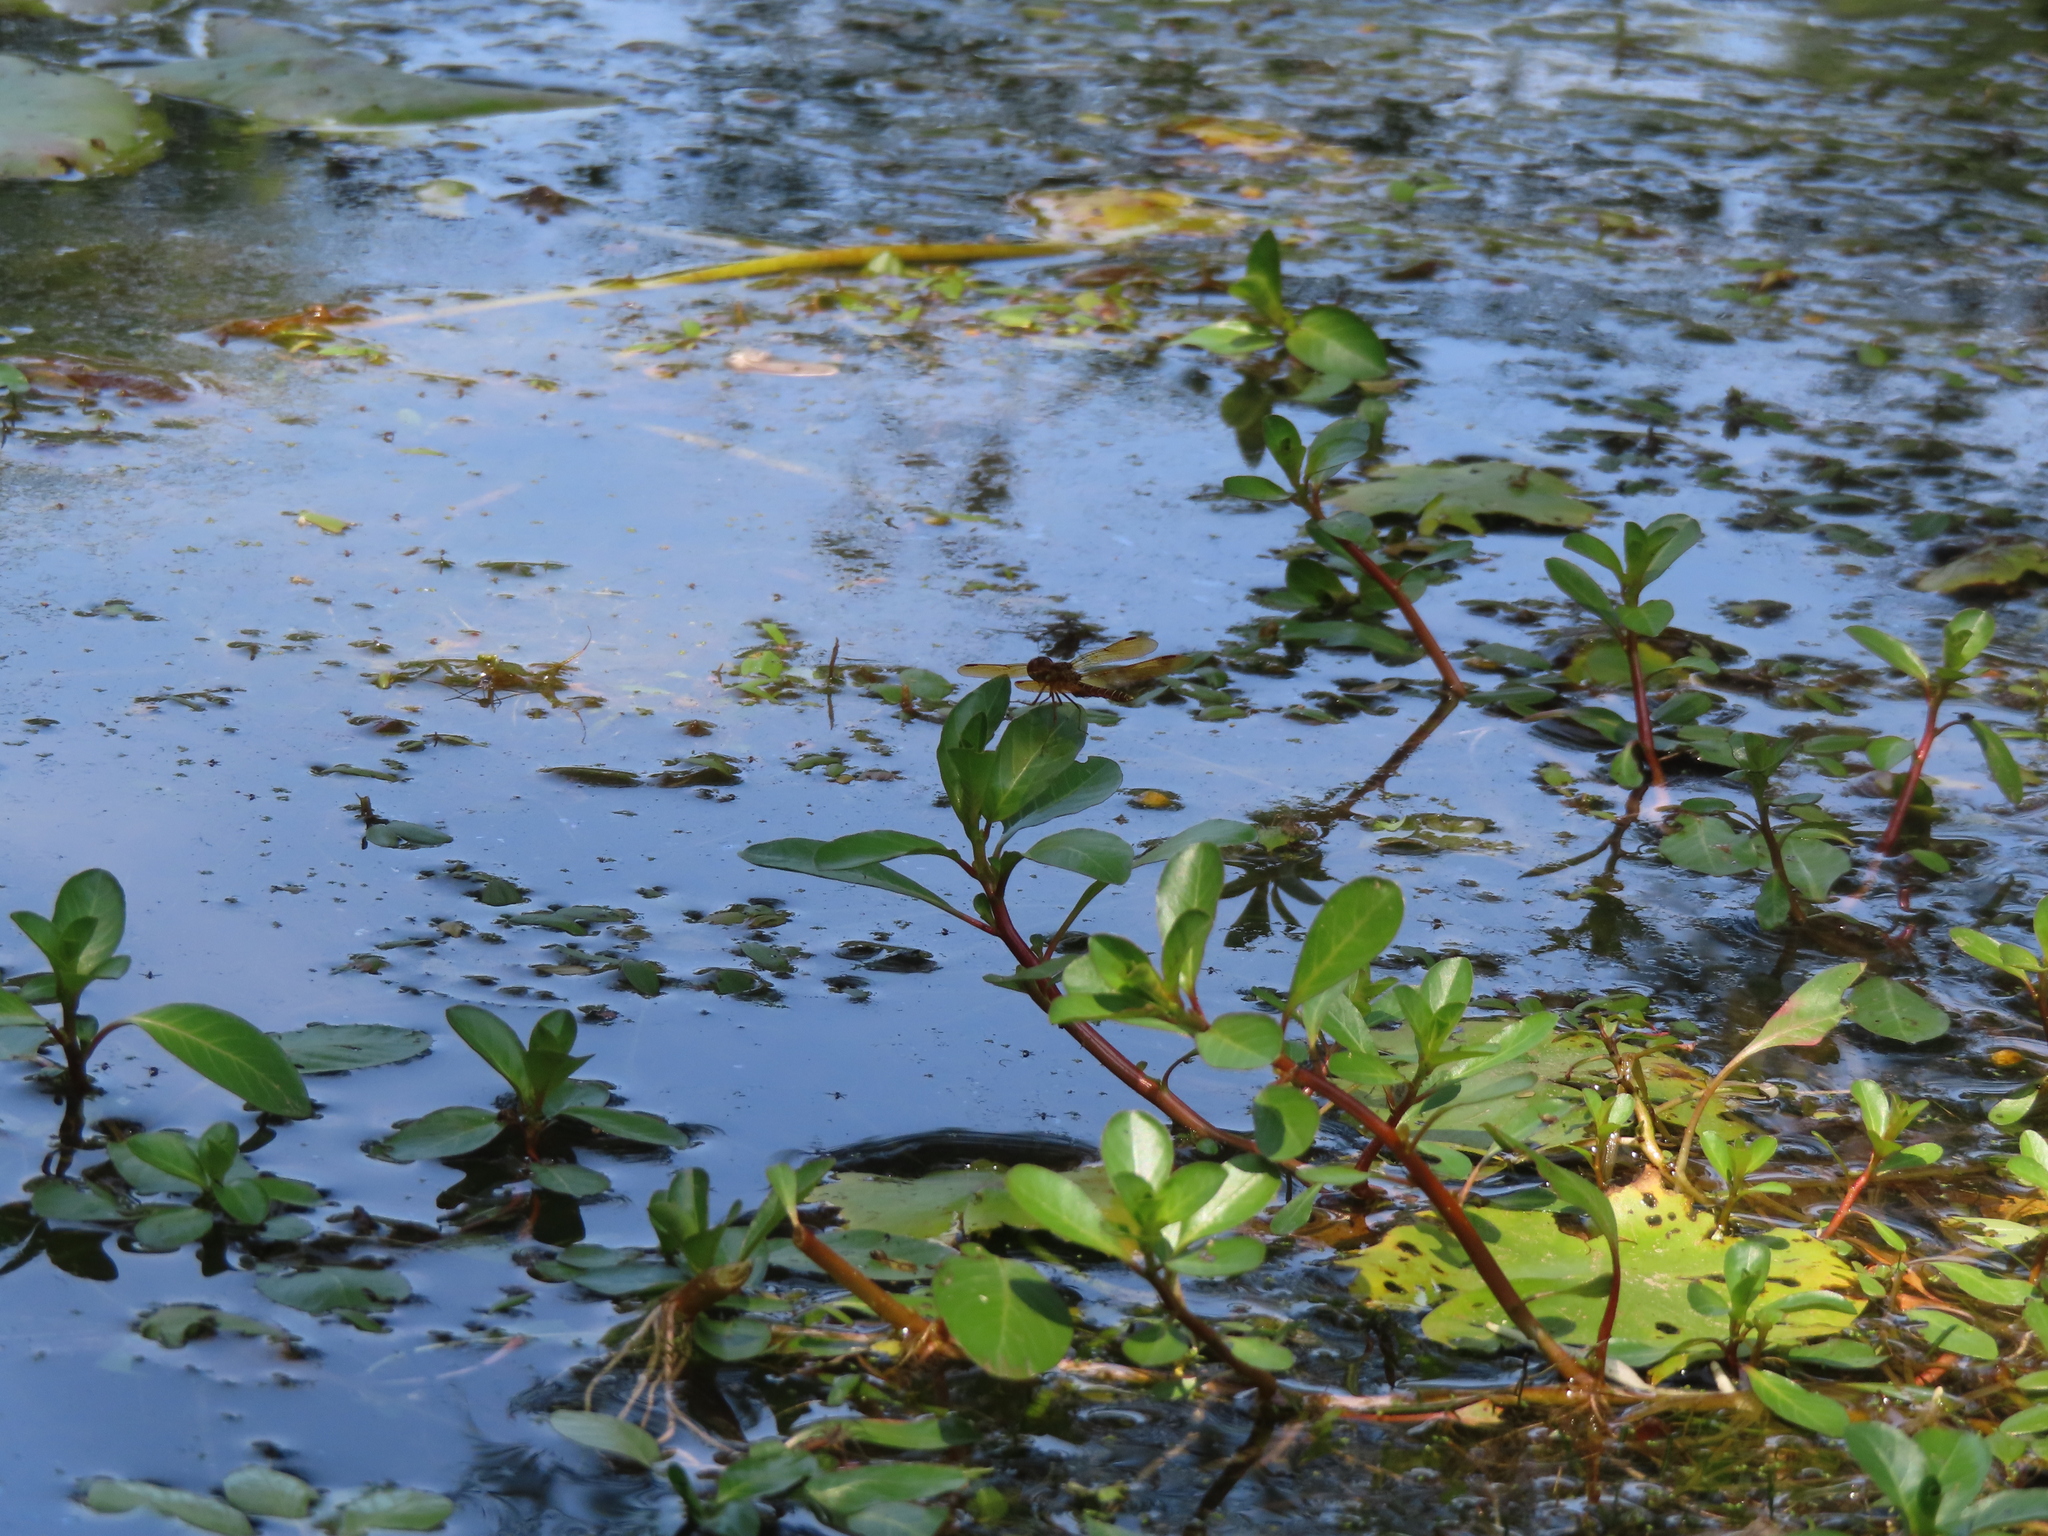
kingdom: Animalia
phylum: Arthropoda
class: Insecta
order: Odonata
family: Libellulidae
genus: Perithemis
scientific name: Perithemis tenera
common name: Eastern amberwing
